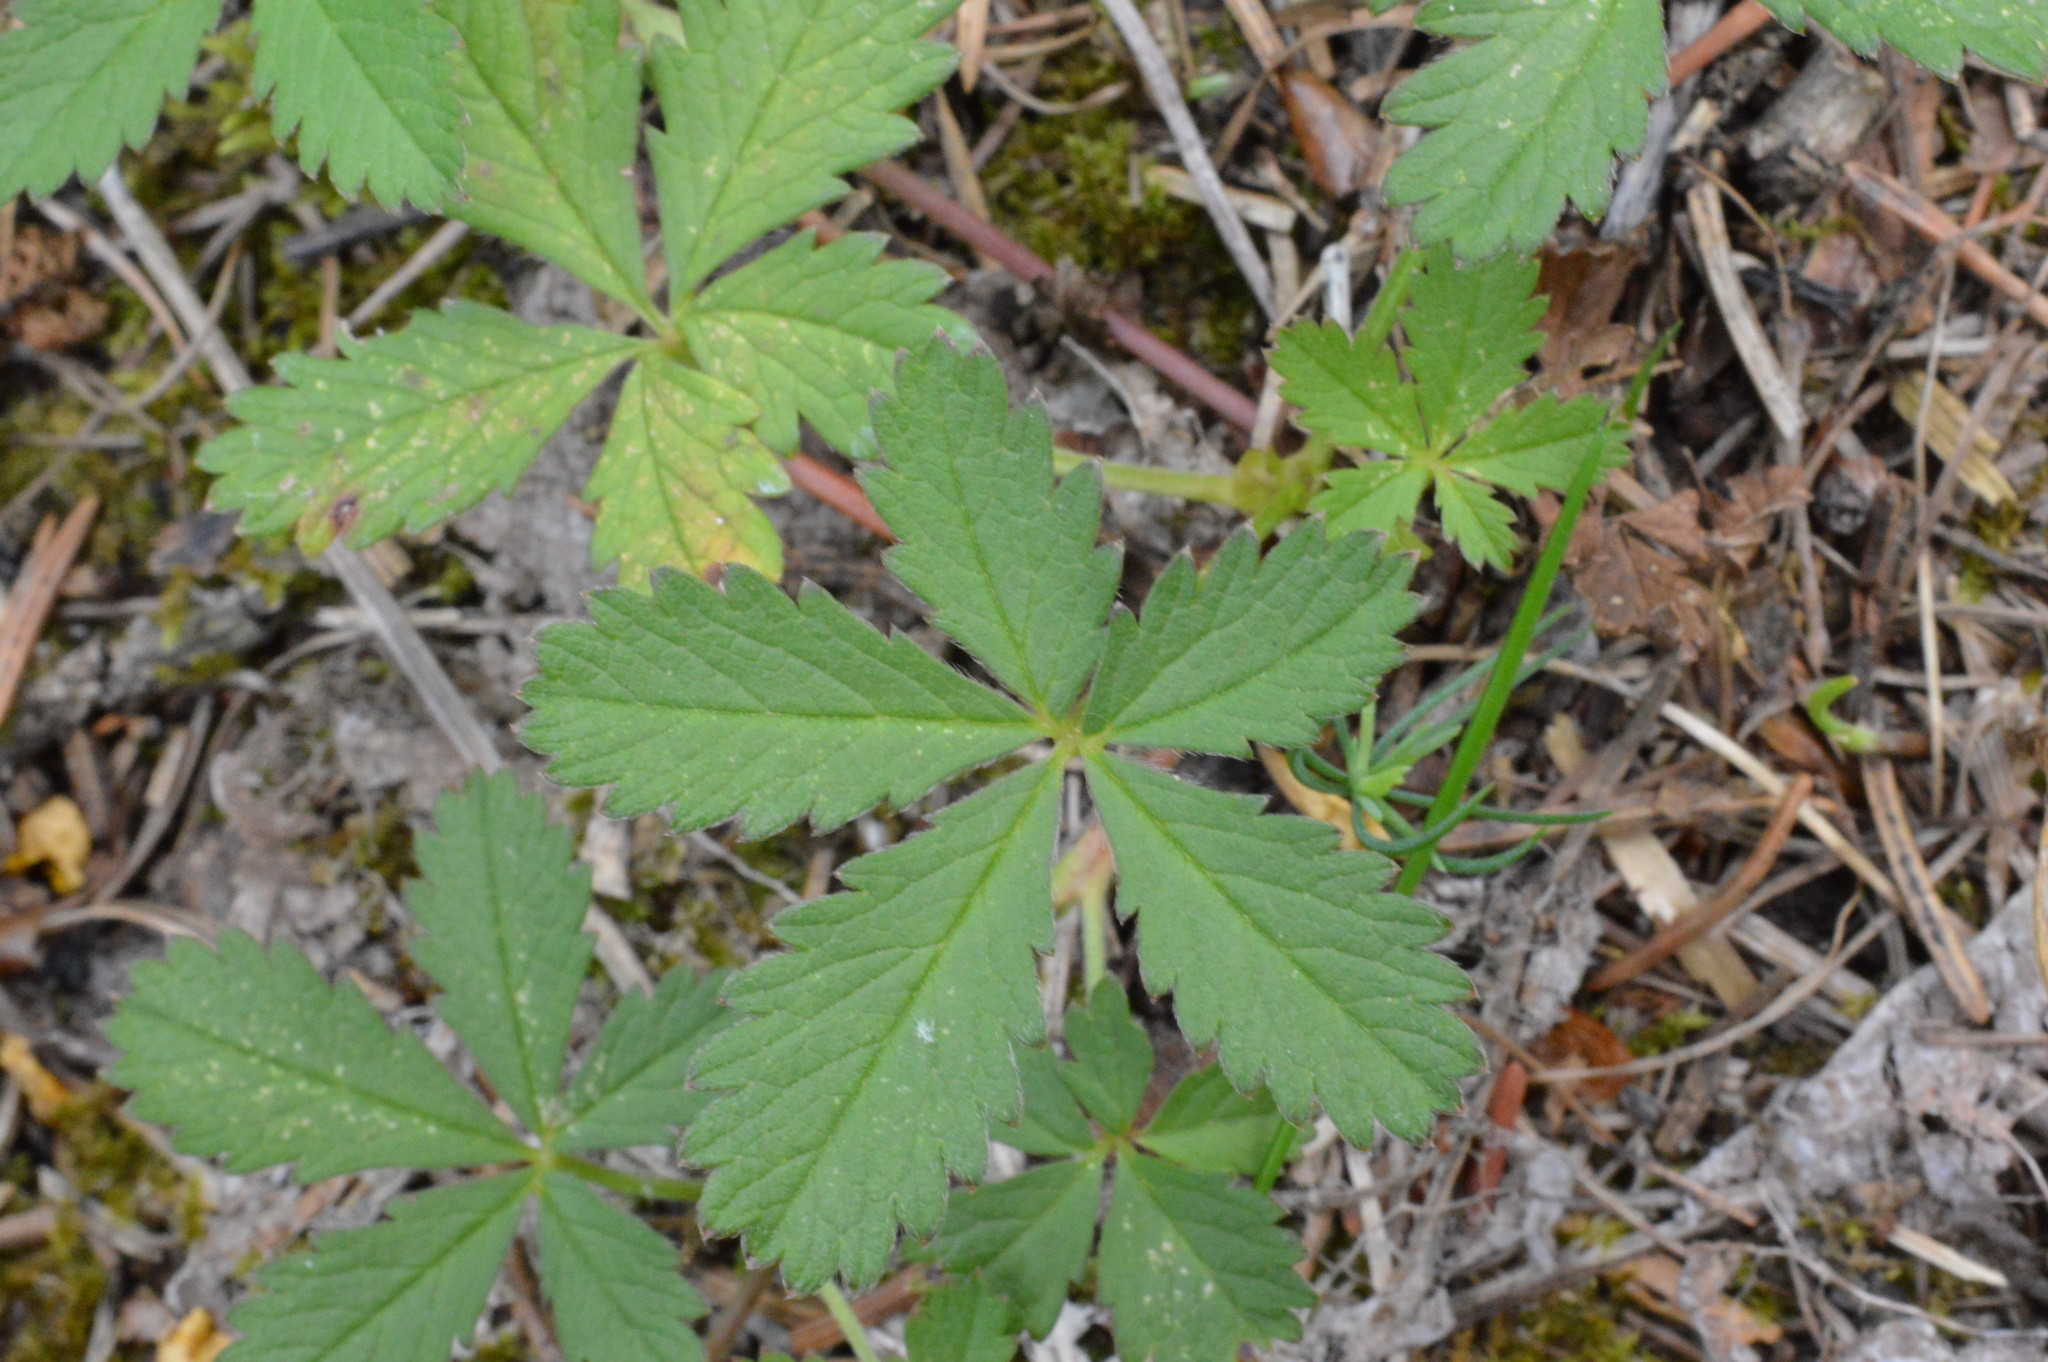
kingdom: Plantae
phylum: Tracheophyta
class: Magnoliopsida
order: Rosales
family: Rosaceae
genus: Potentilla
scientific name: Potentilla reptans
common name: Creeping cinquefoil
